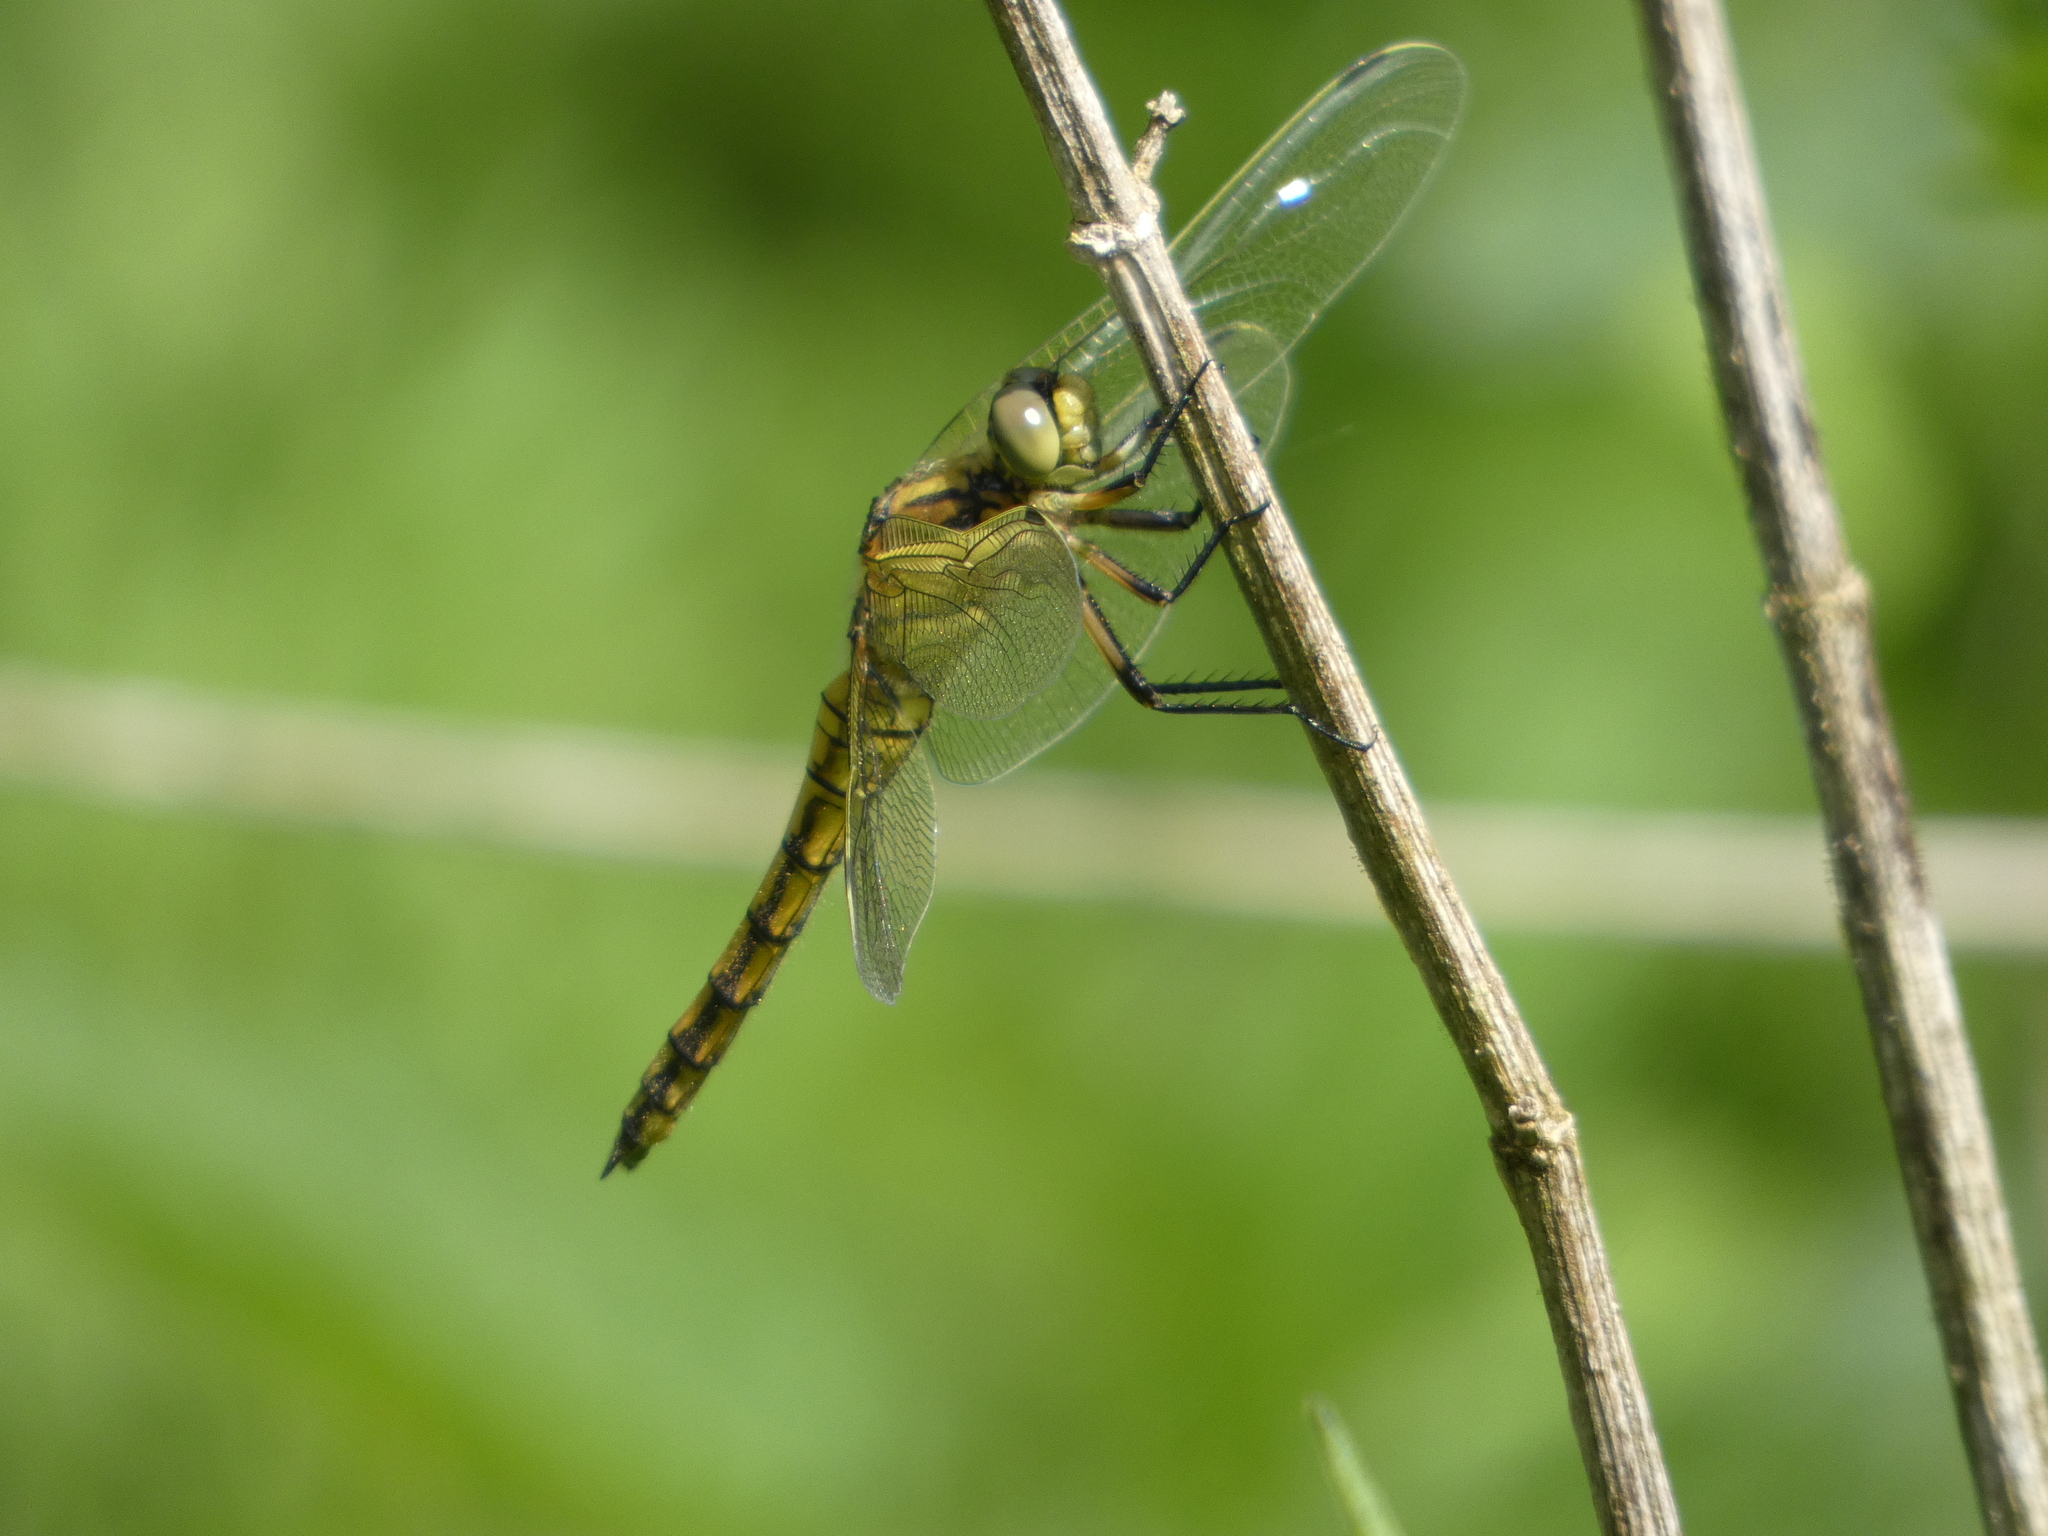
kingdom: Animalia
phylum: Arthropoda
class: Insecta
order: Odonata
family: Libellulidae
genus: Orthetrum
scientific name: Orthetrum cancellatum
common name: Black-tailed skimmer
